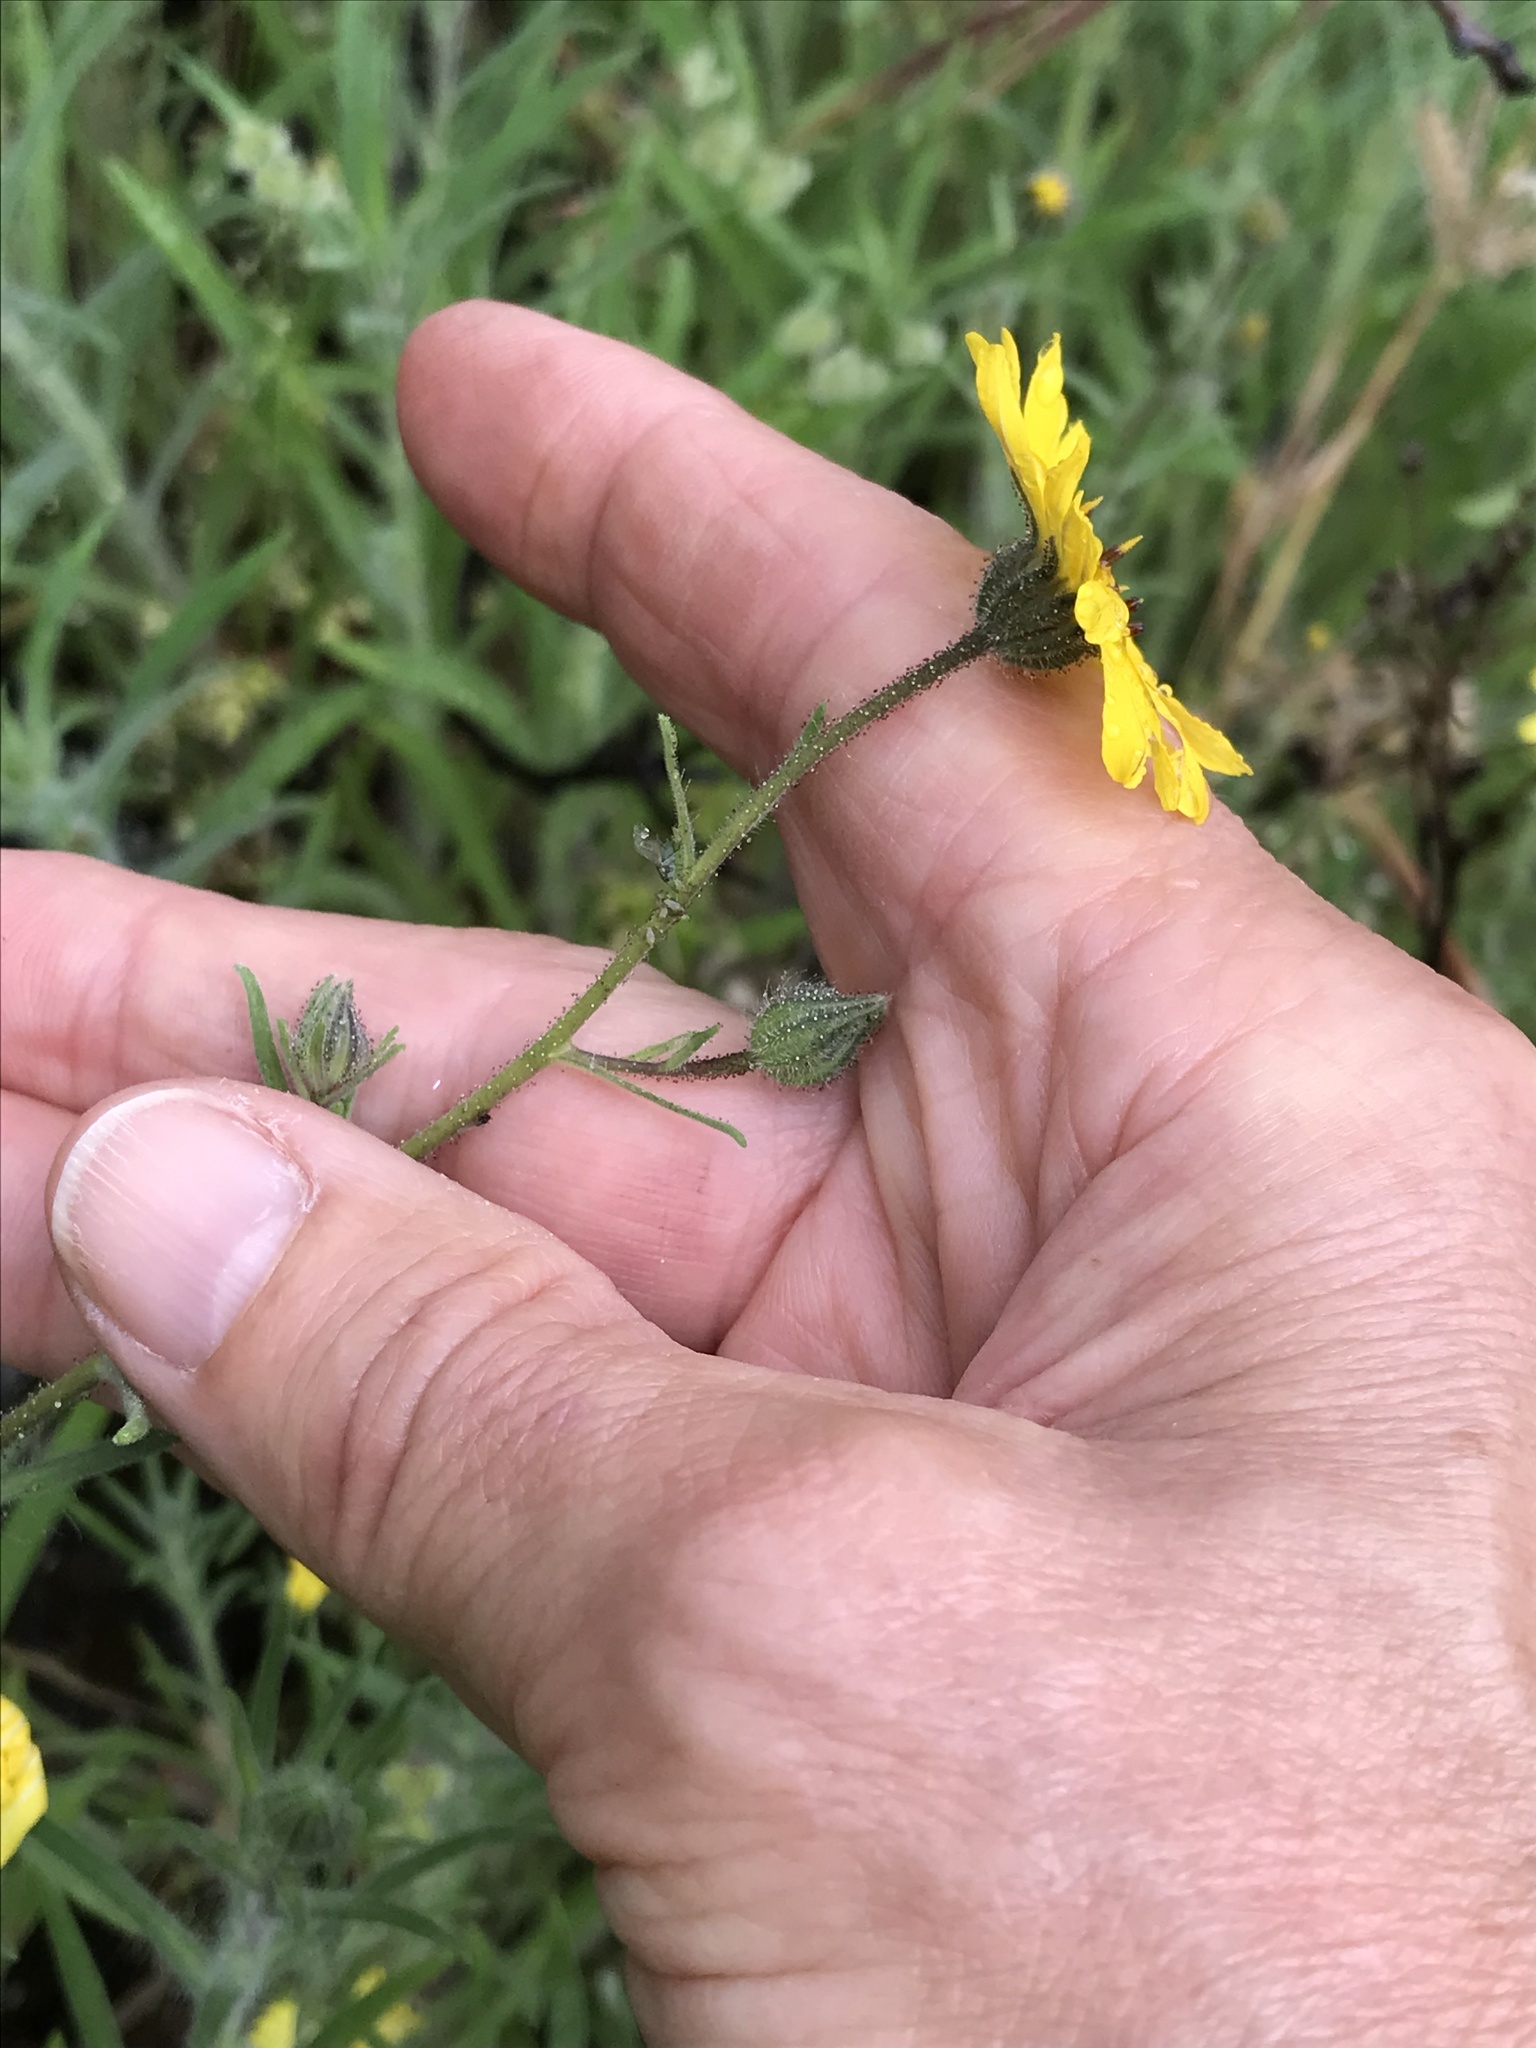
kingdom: Plantae
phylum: Tracheophyta
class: Magnoliopsida
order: Asterales
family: Asteraceae
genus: Madia
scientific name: Madia elegans
